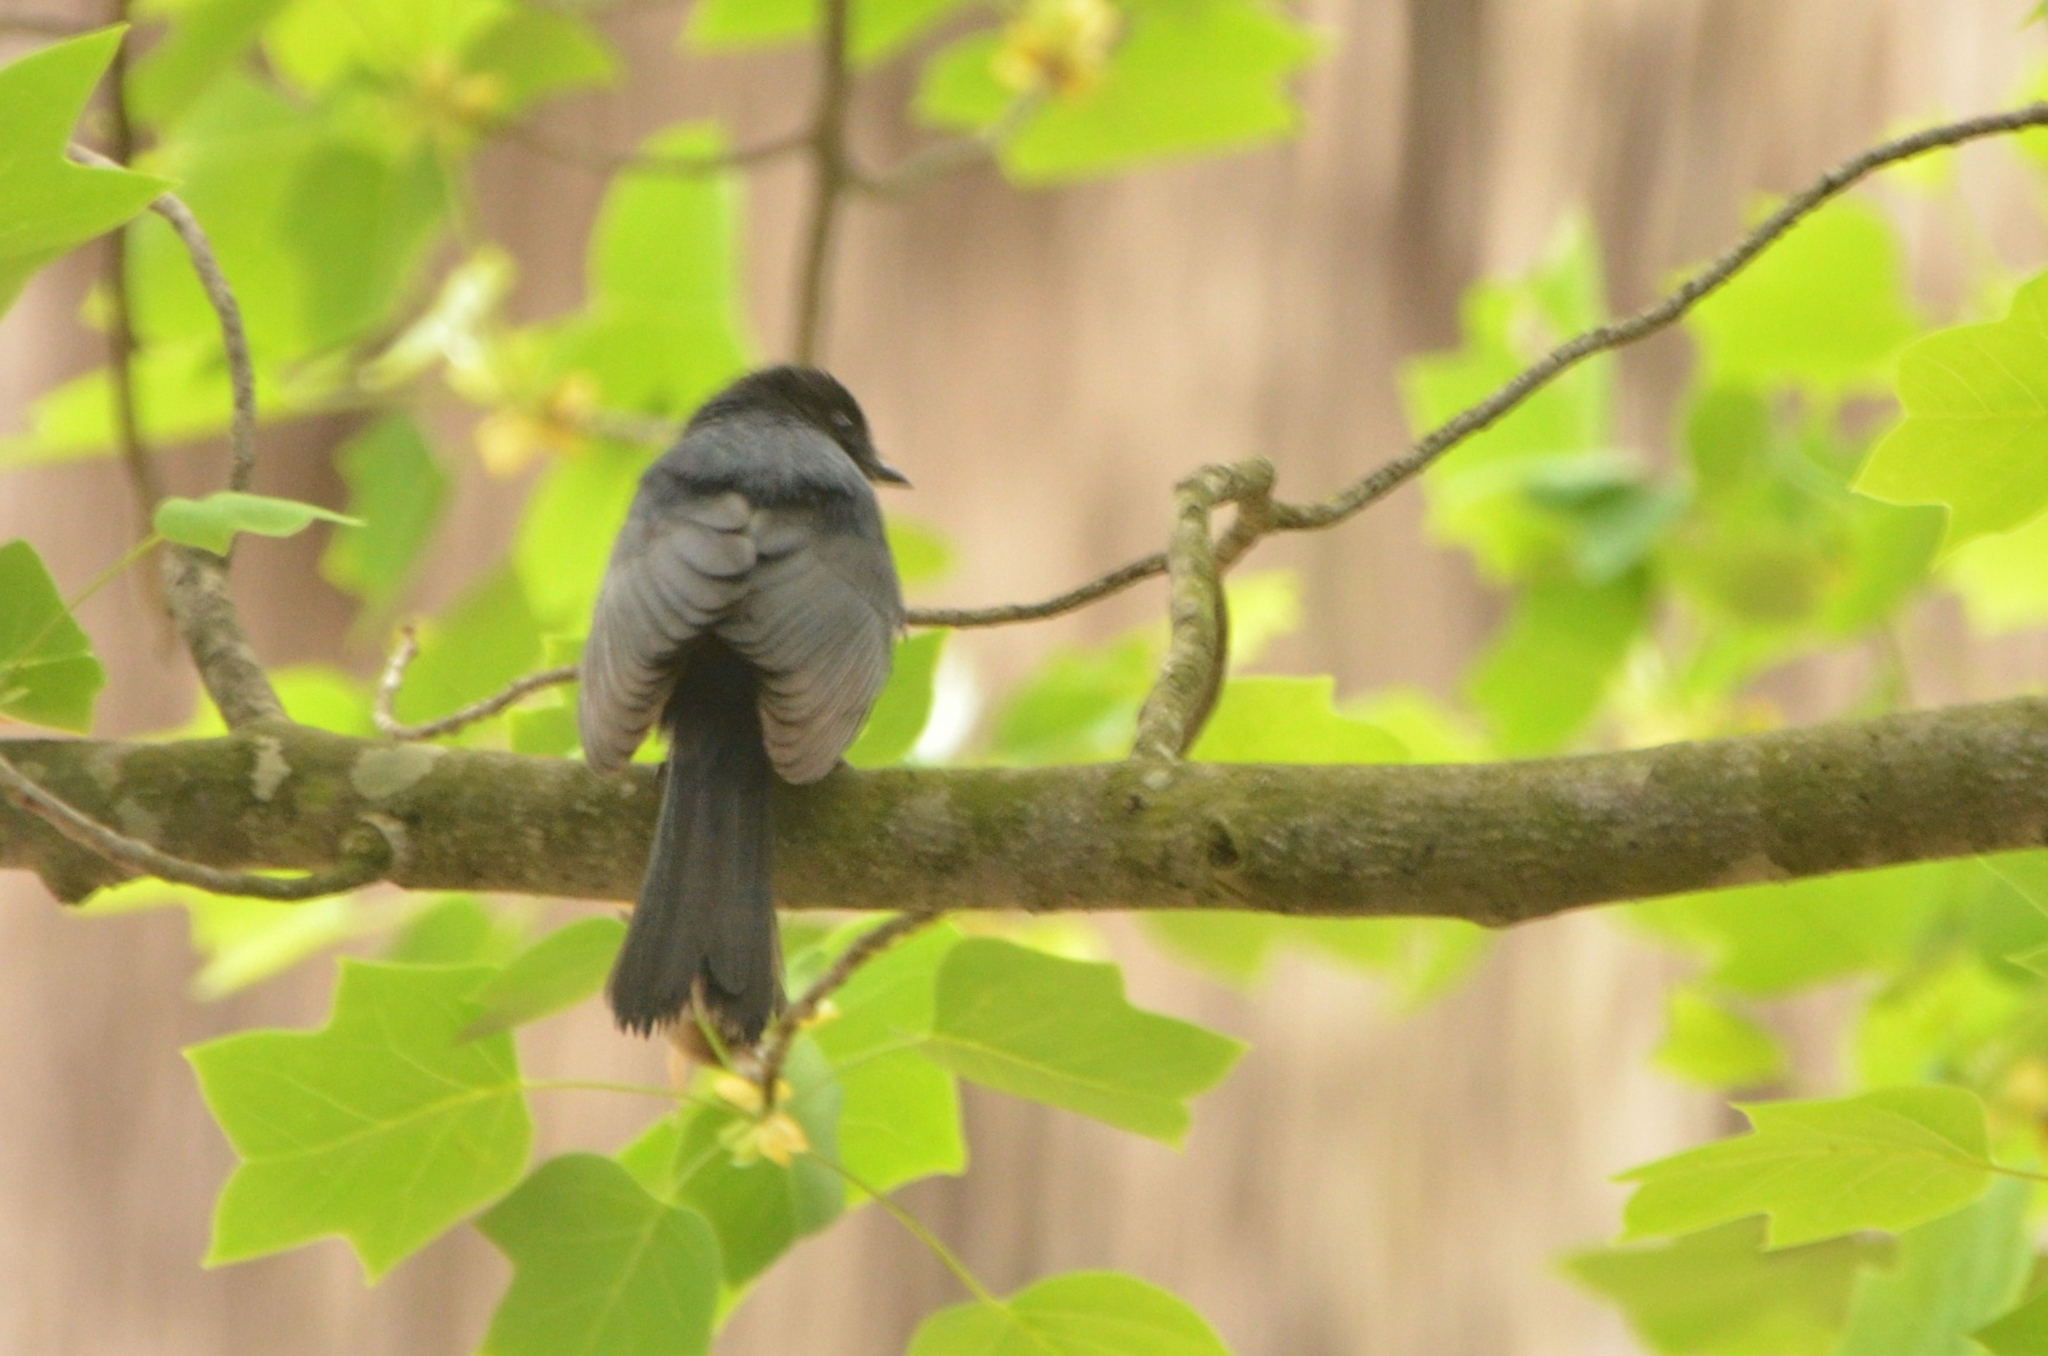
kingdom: Animalia
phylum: Chordata
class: Aves
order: Passeriformes
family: Muscicapidae
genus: Melaenornis
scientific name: Melaenornis pammelaina
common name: Southern black flycatcher
